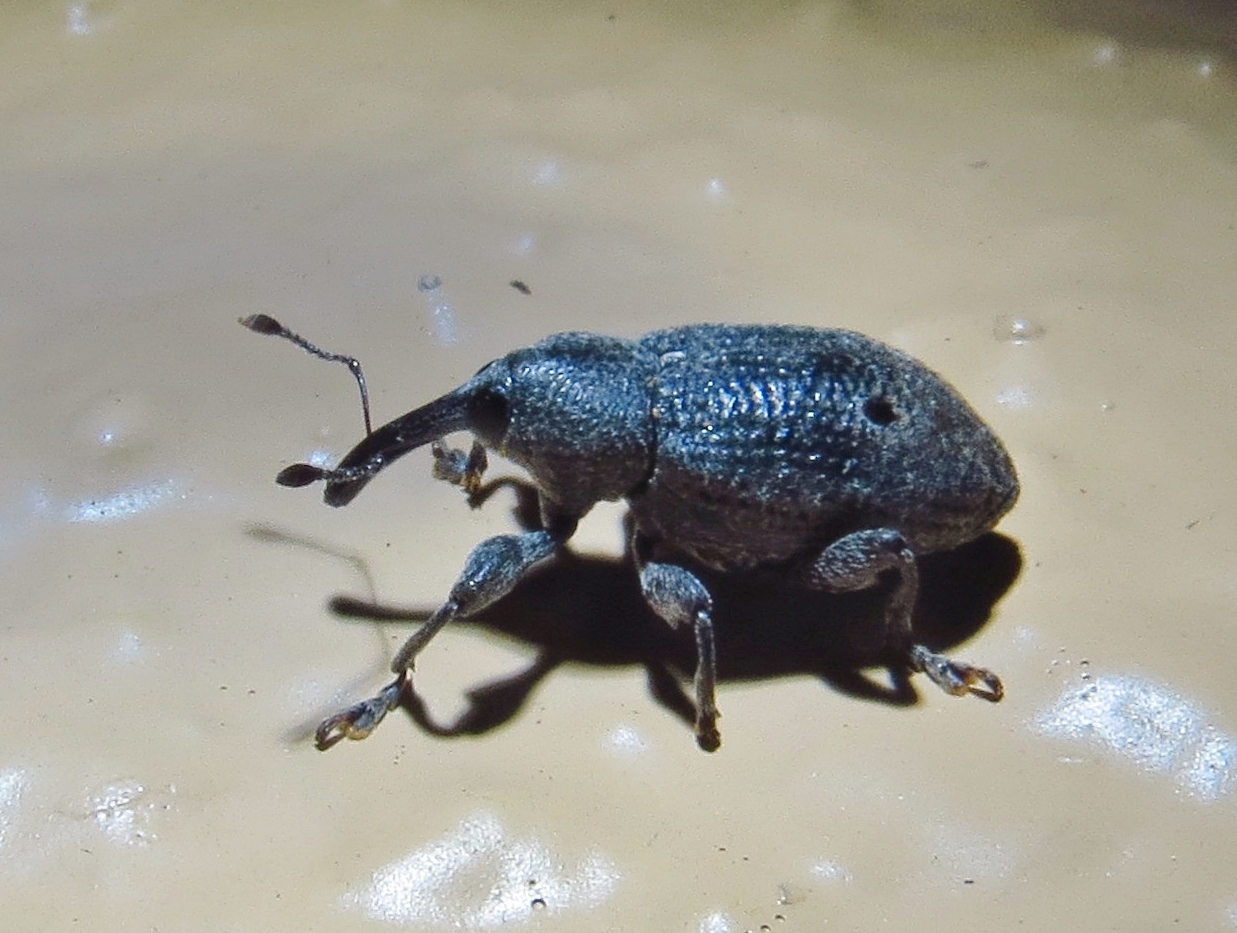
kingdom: Animalia
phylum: Arthropoda
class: Insecta
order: Coleoptera
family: Curculionidae
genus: Heilus
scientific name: Heilus bioculatus
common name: Gumbo limbo weevil
